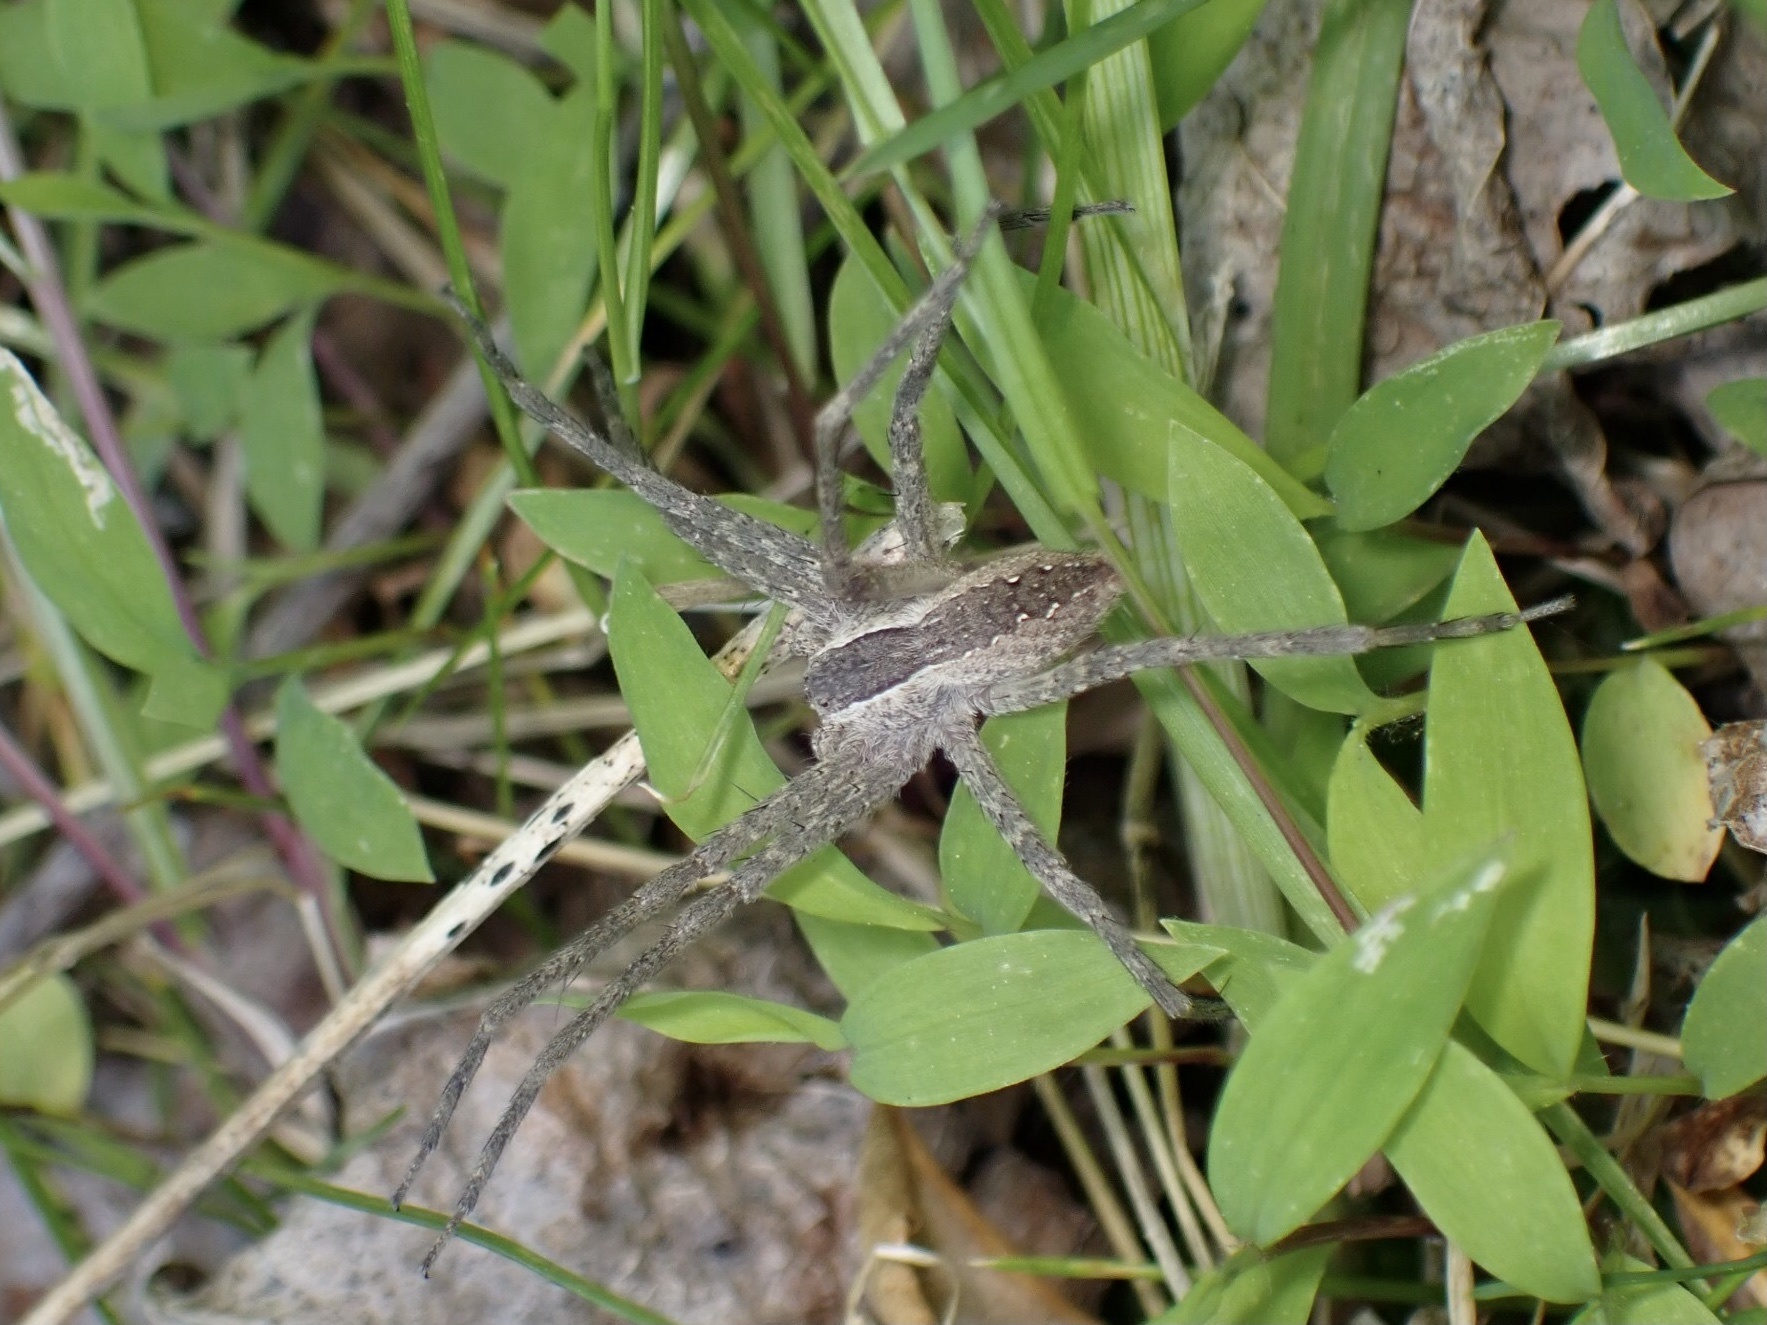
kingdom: Animalia
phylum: Arthropoda
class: Arachnida
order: Araneae
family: Pisauridae
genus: Pisaurina
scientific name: Pisaurina mira
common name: American nursery web spider
